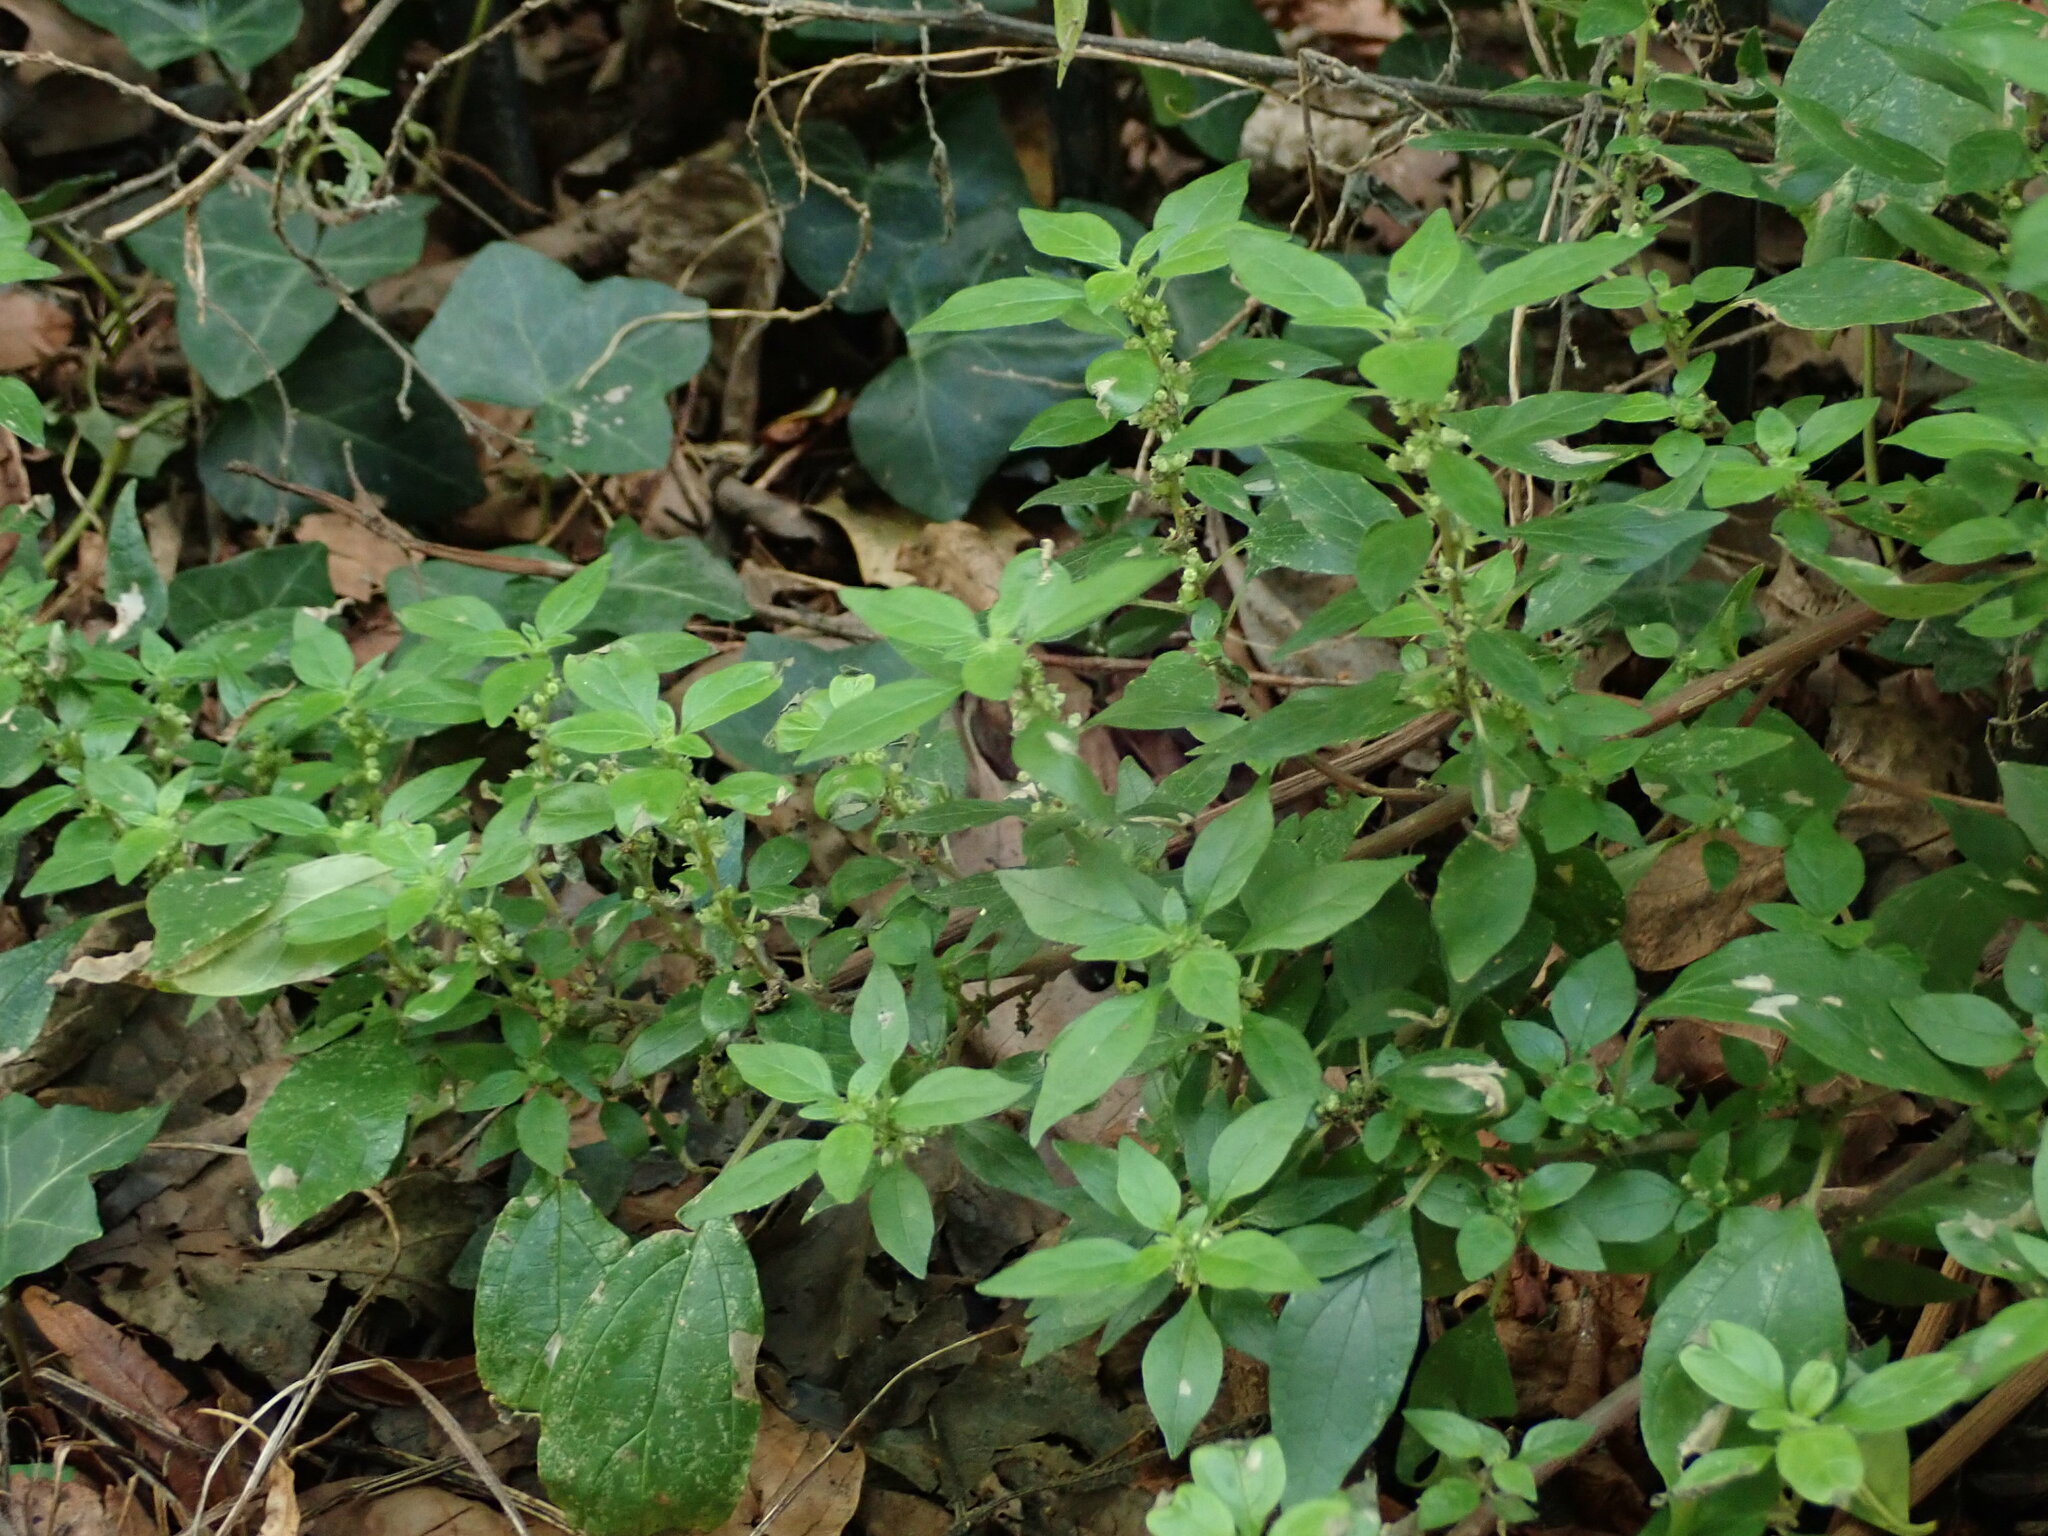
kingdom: Plantae
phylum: Tracheophyta
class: Magnoliopsida
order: Rosales
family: Urticaceae
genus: Parietaria
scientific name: Parietaria judaica
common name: Pellitory-of-the-wall
